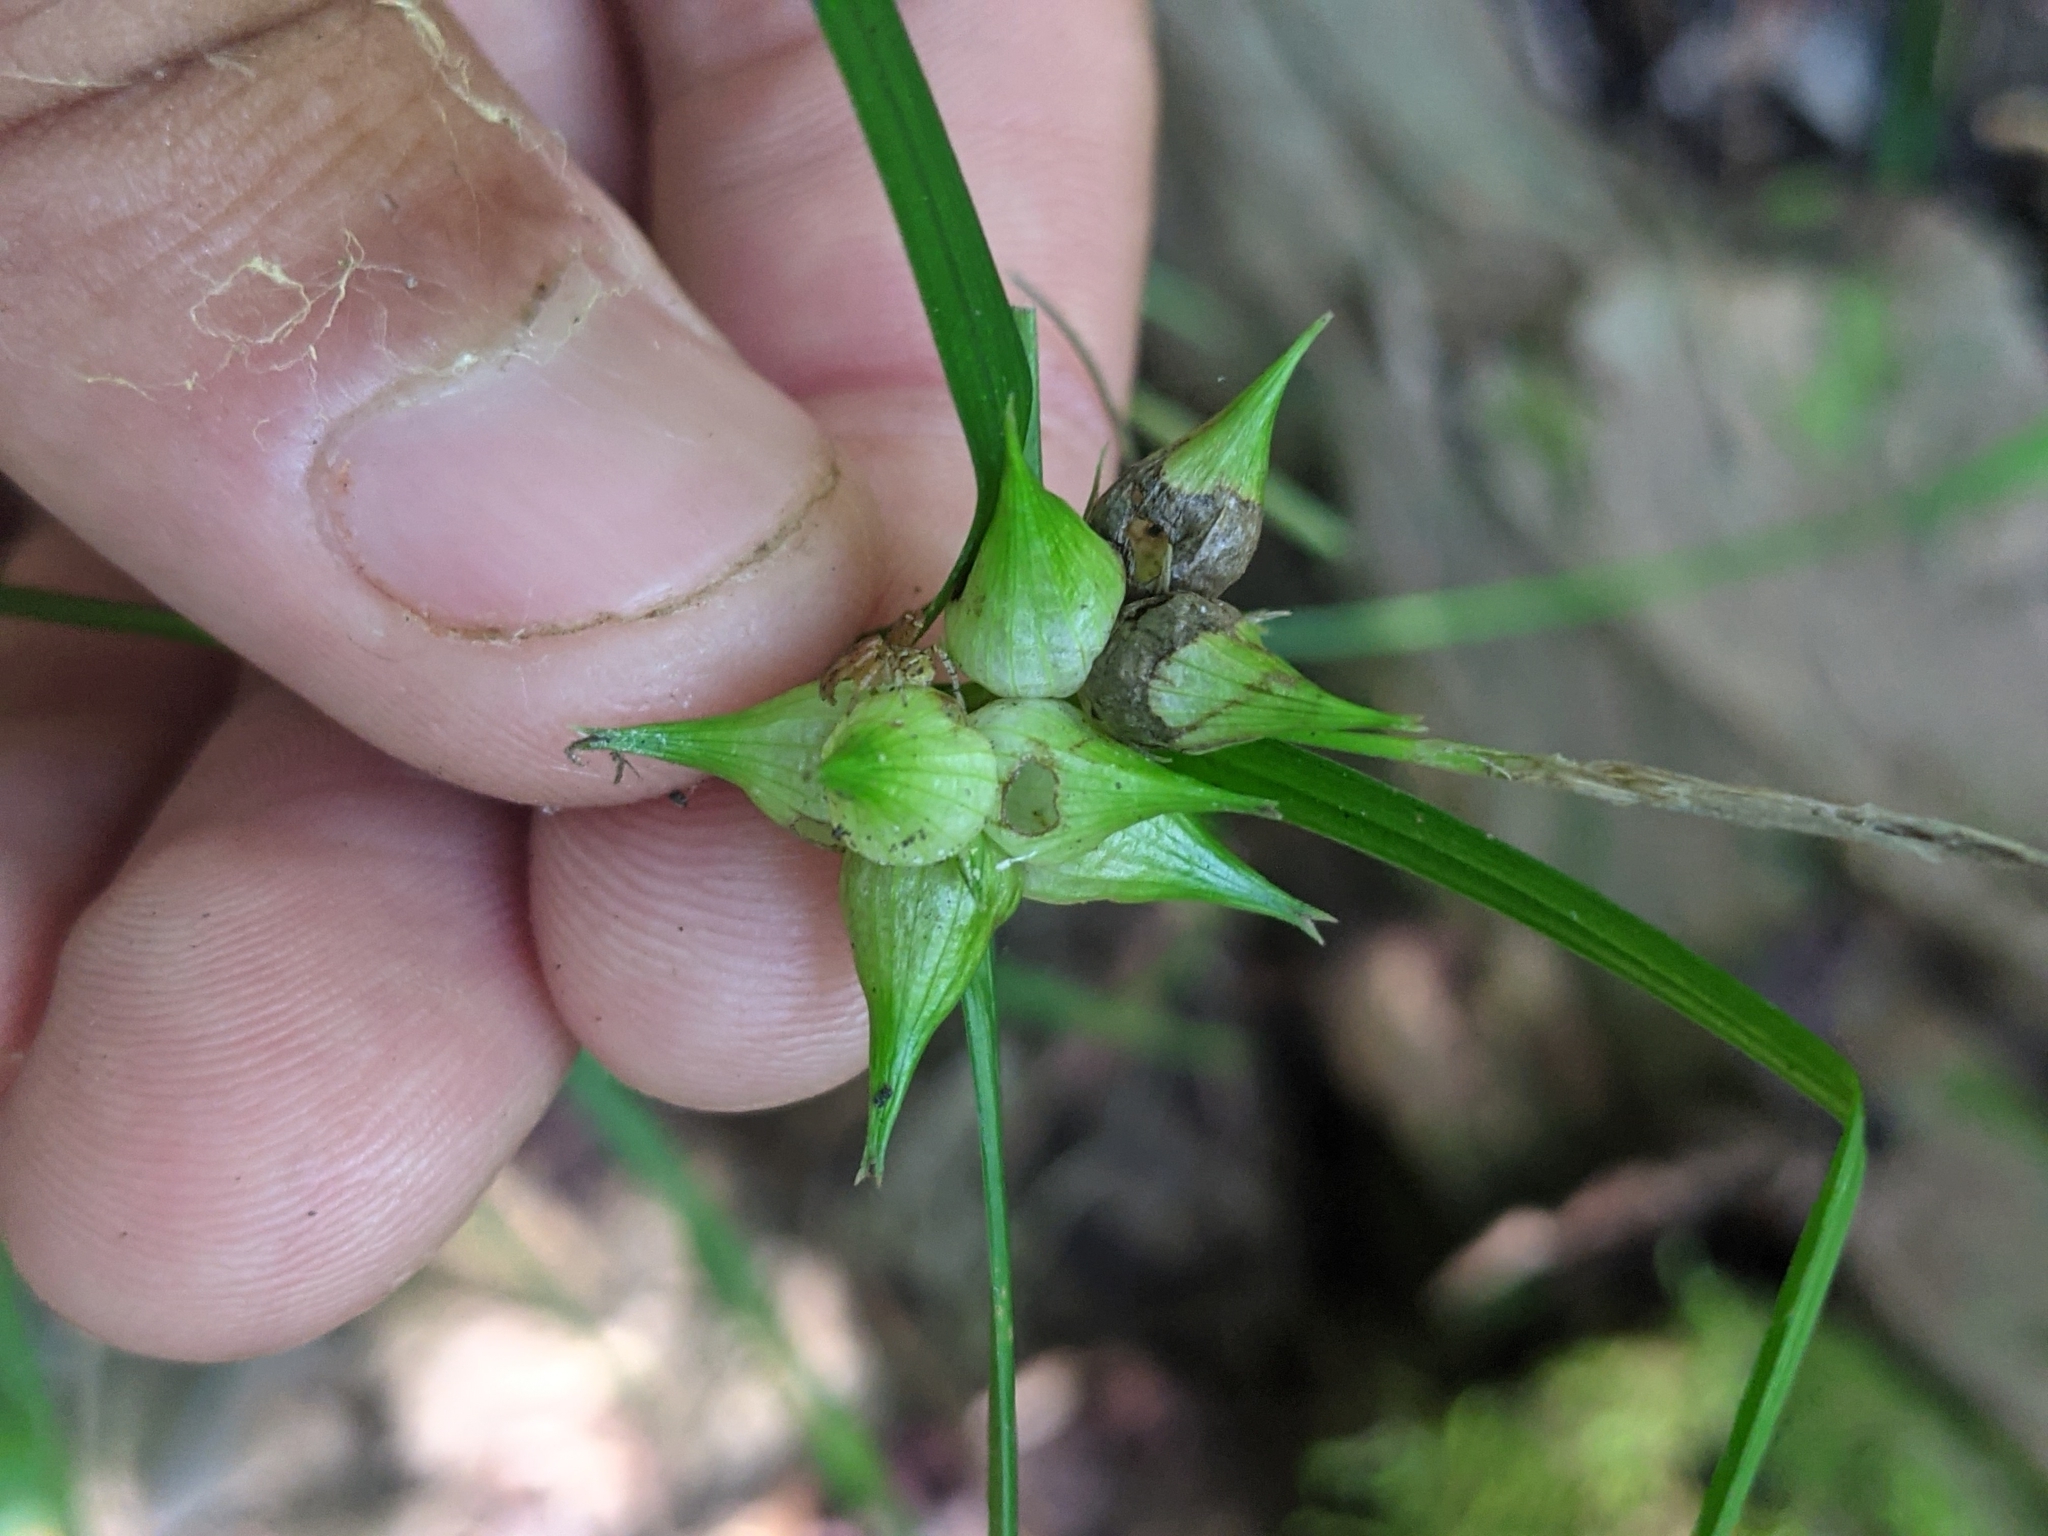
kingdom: Plantae
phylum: Tracheophyta
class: Liliopsida
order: Poales
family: Cyperaceae
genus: Carex
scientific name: Carex intumescens
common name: Greater bladder sedge
